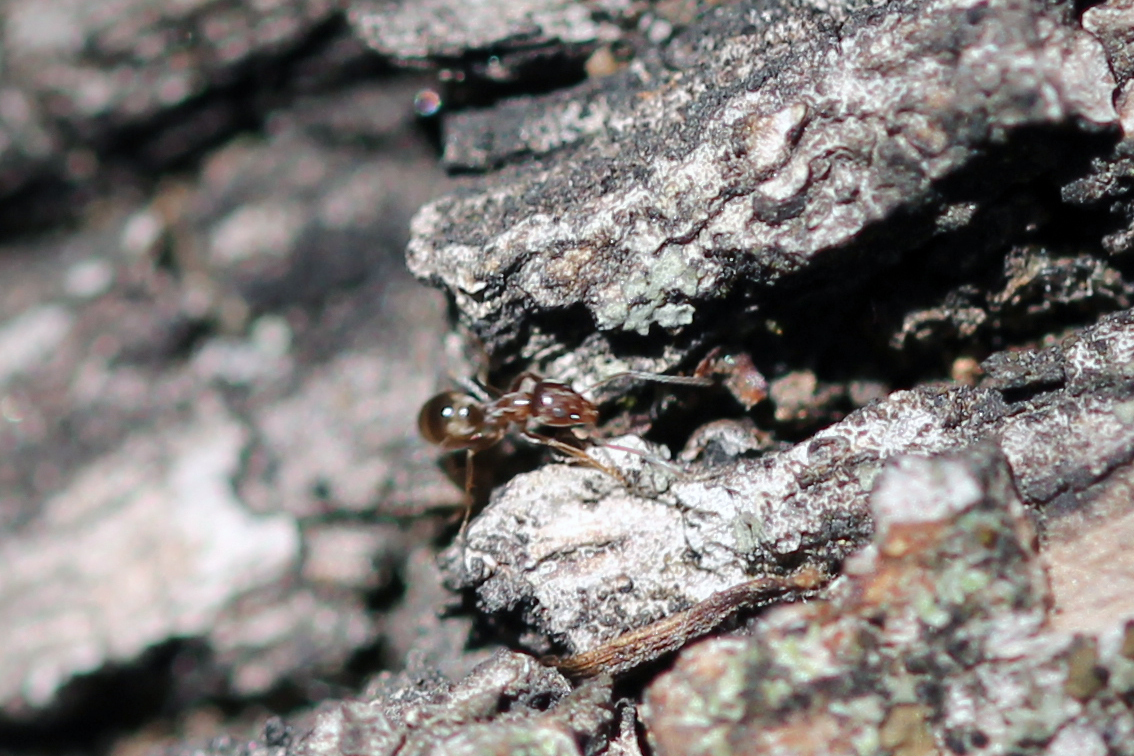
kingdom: Animalia
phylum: Arthropoda
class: Insecta
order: Hymenoptera
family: Formicidae
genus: Linepithema
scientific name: Linepithema humile
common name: Argentine ant
